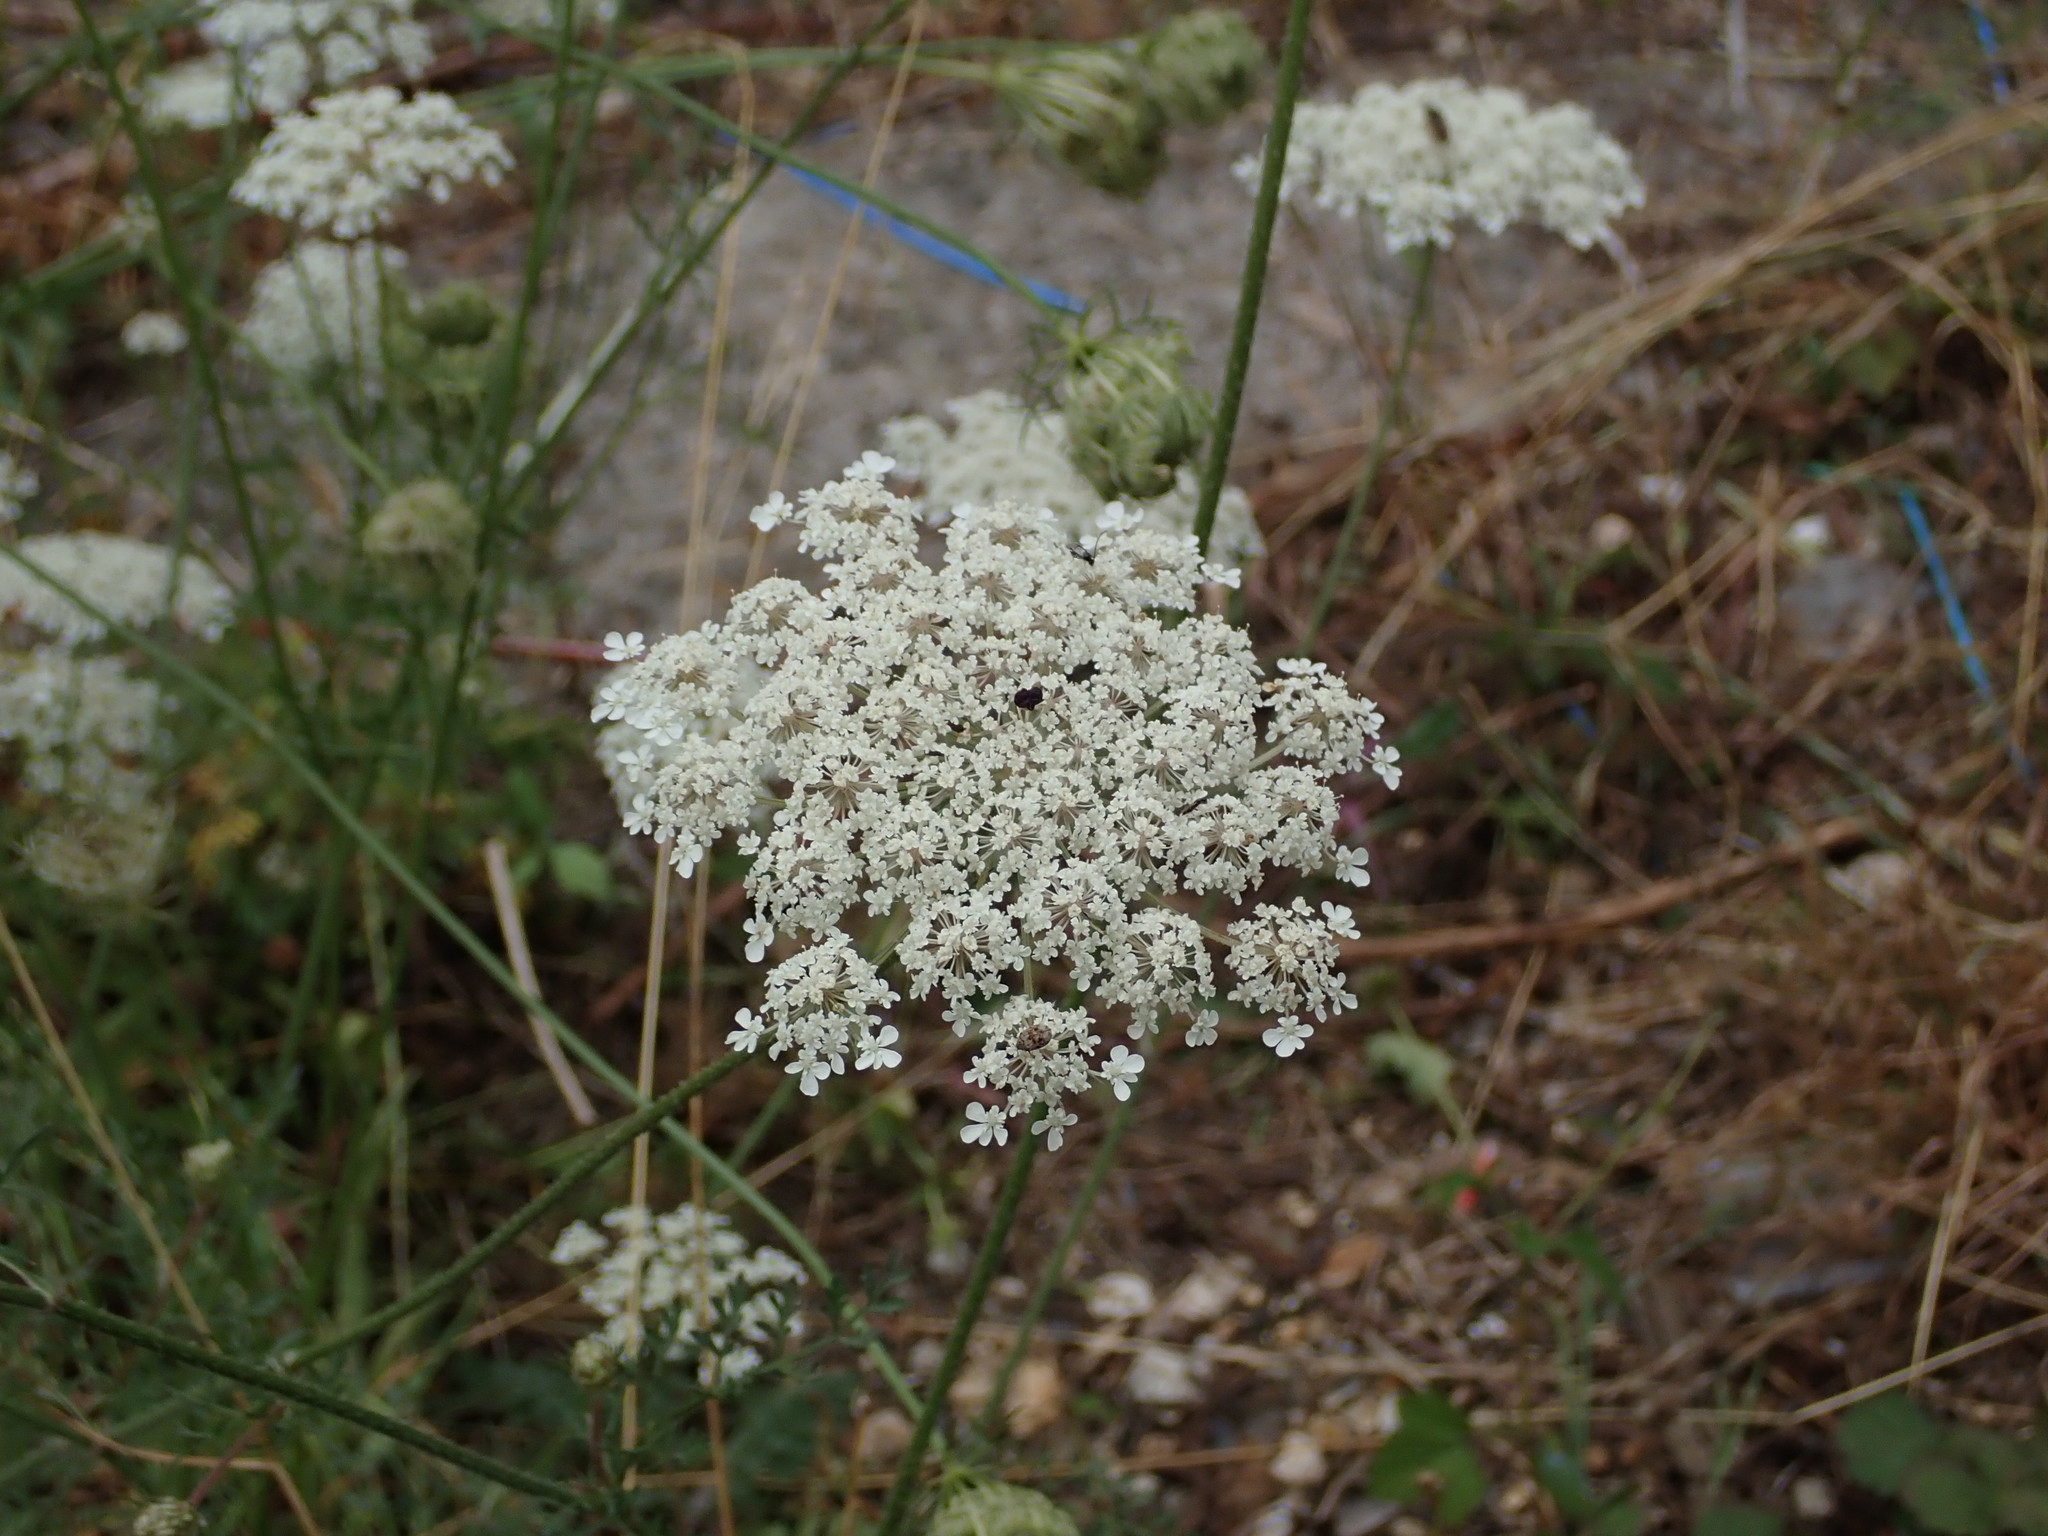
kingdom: Plantae
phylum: Tracheophyta
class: Magnoliopsida
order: Apiales
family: Apiaceae
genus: Daucus
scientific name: Daucus carota
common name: Wild carrot
